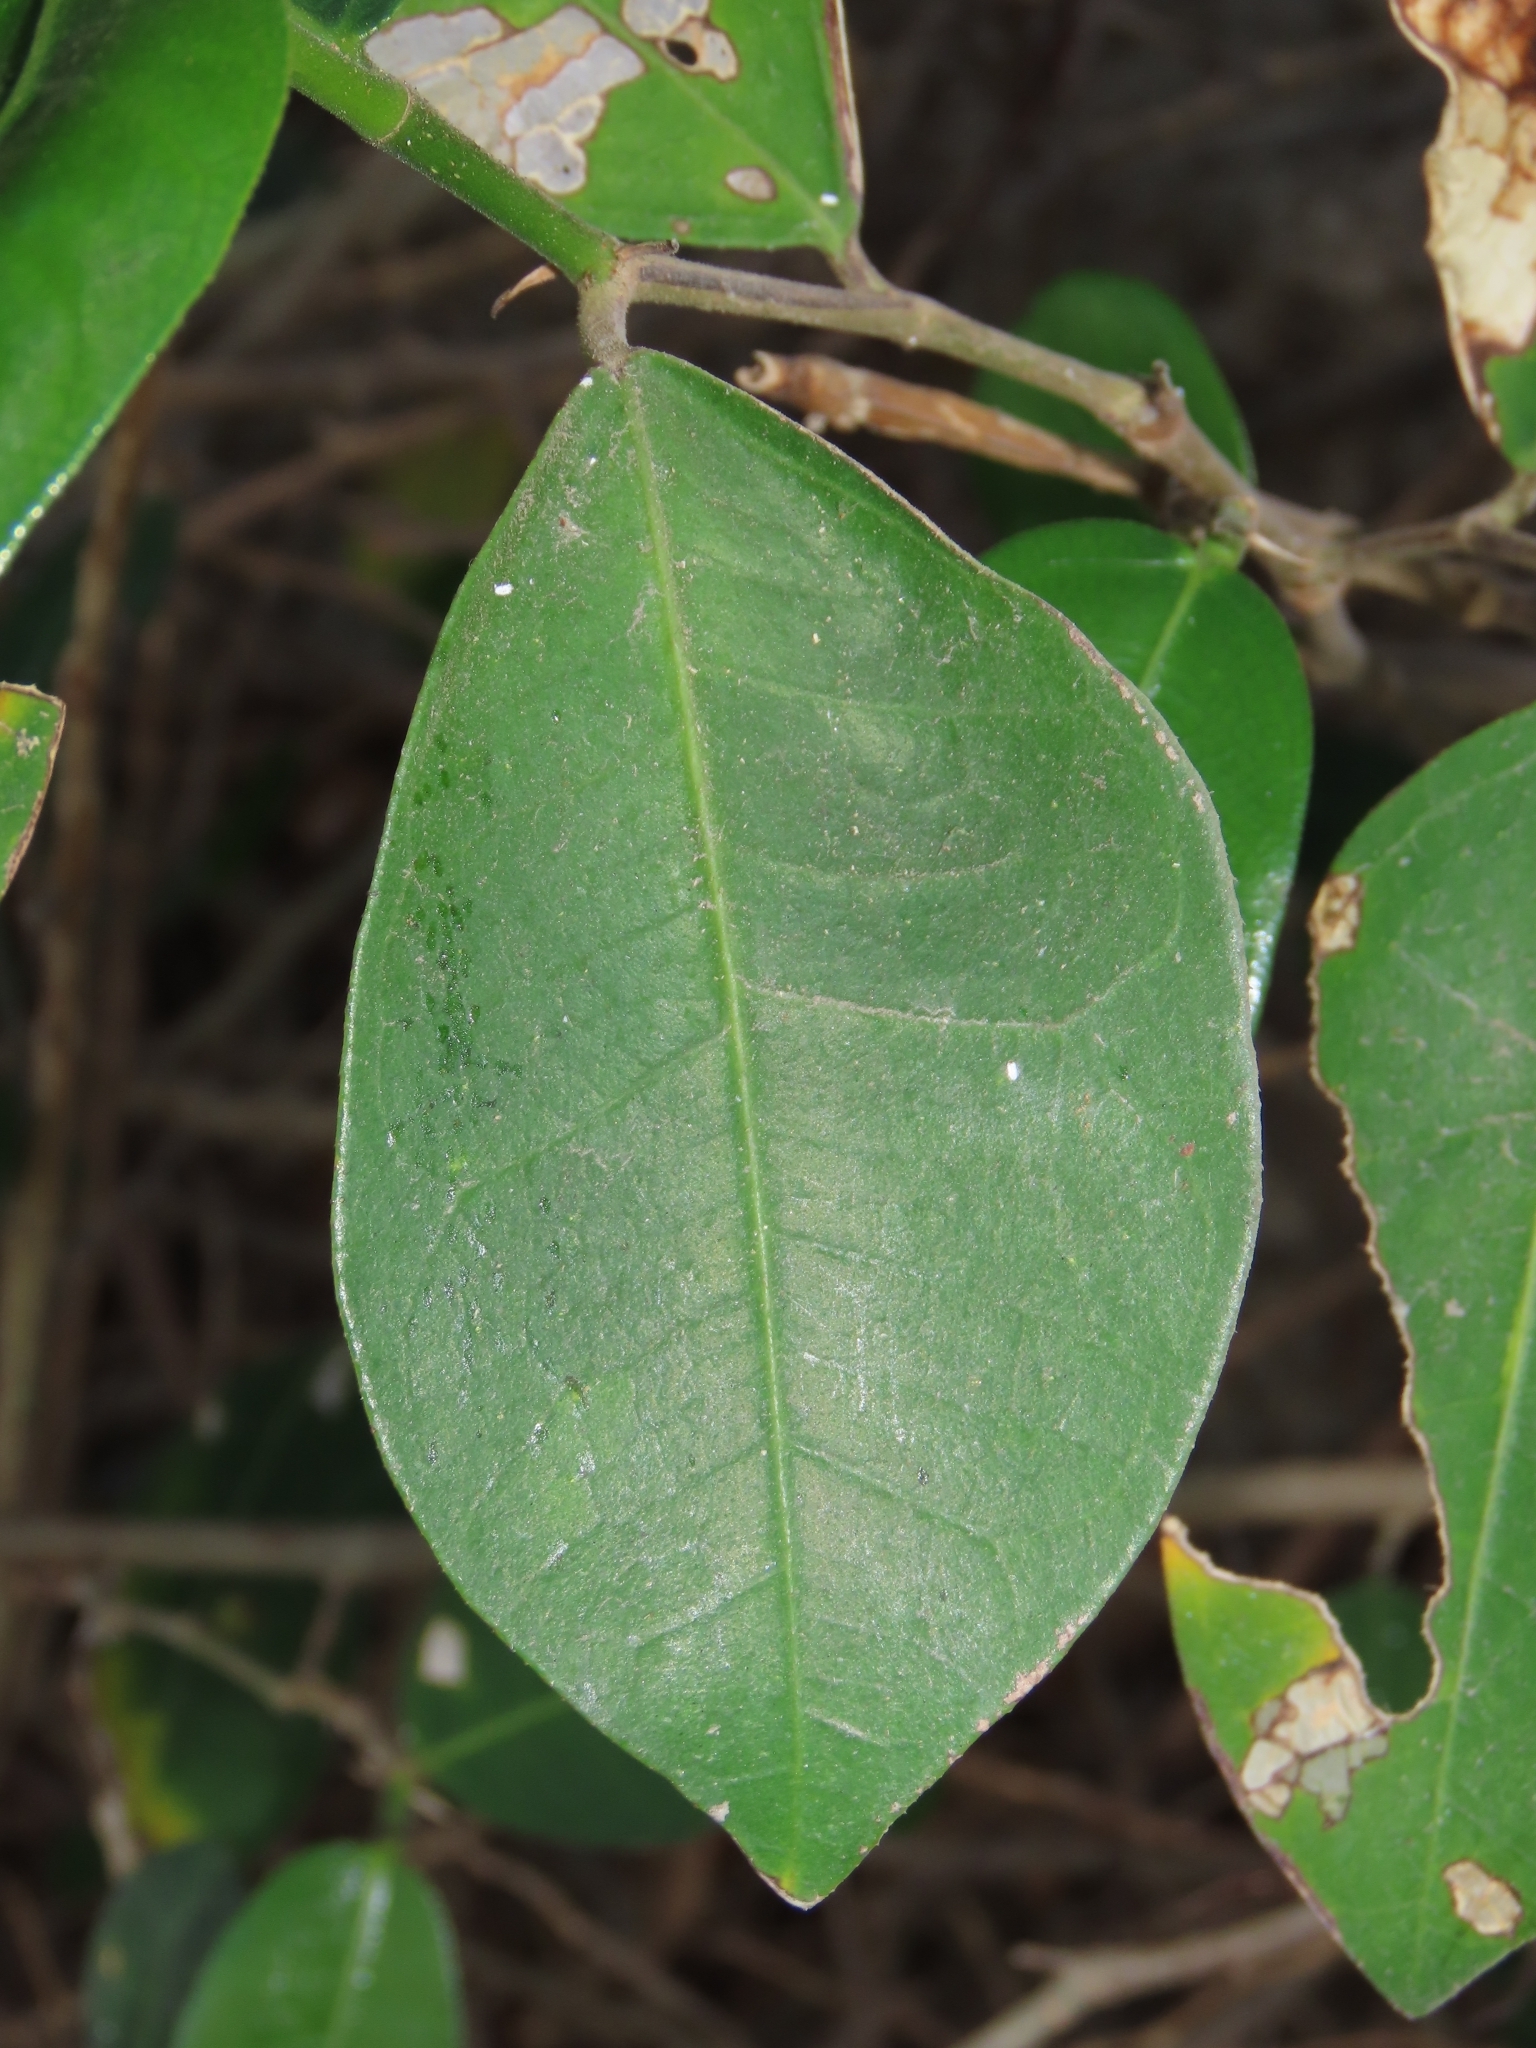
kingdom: Plantae
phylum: Tracheophyta
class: Magnoliopsida
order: Rosales
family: Moraceae
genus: Ficus
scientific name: Ficus tinctoria
